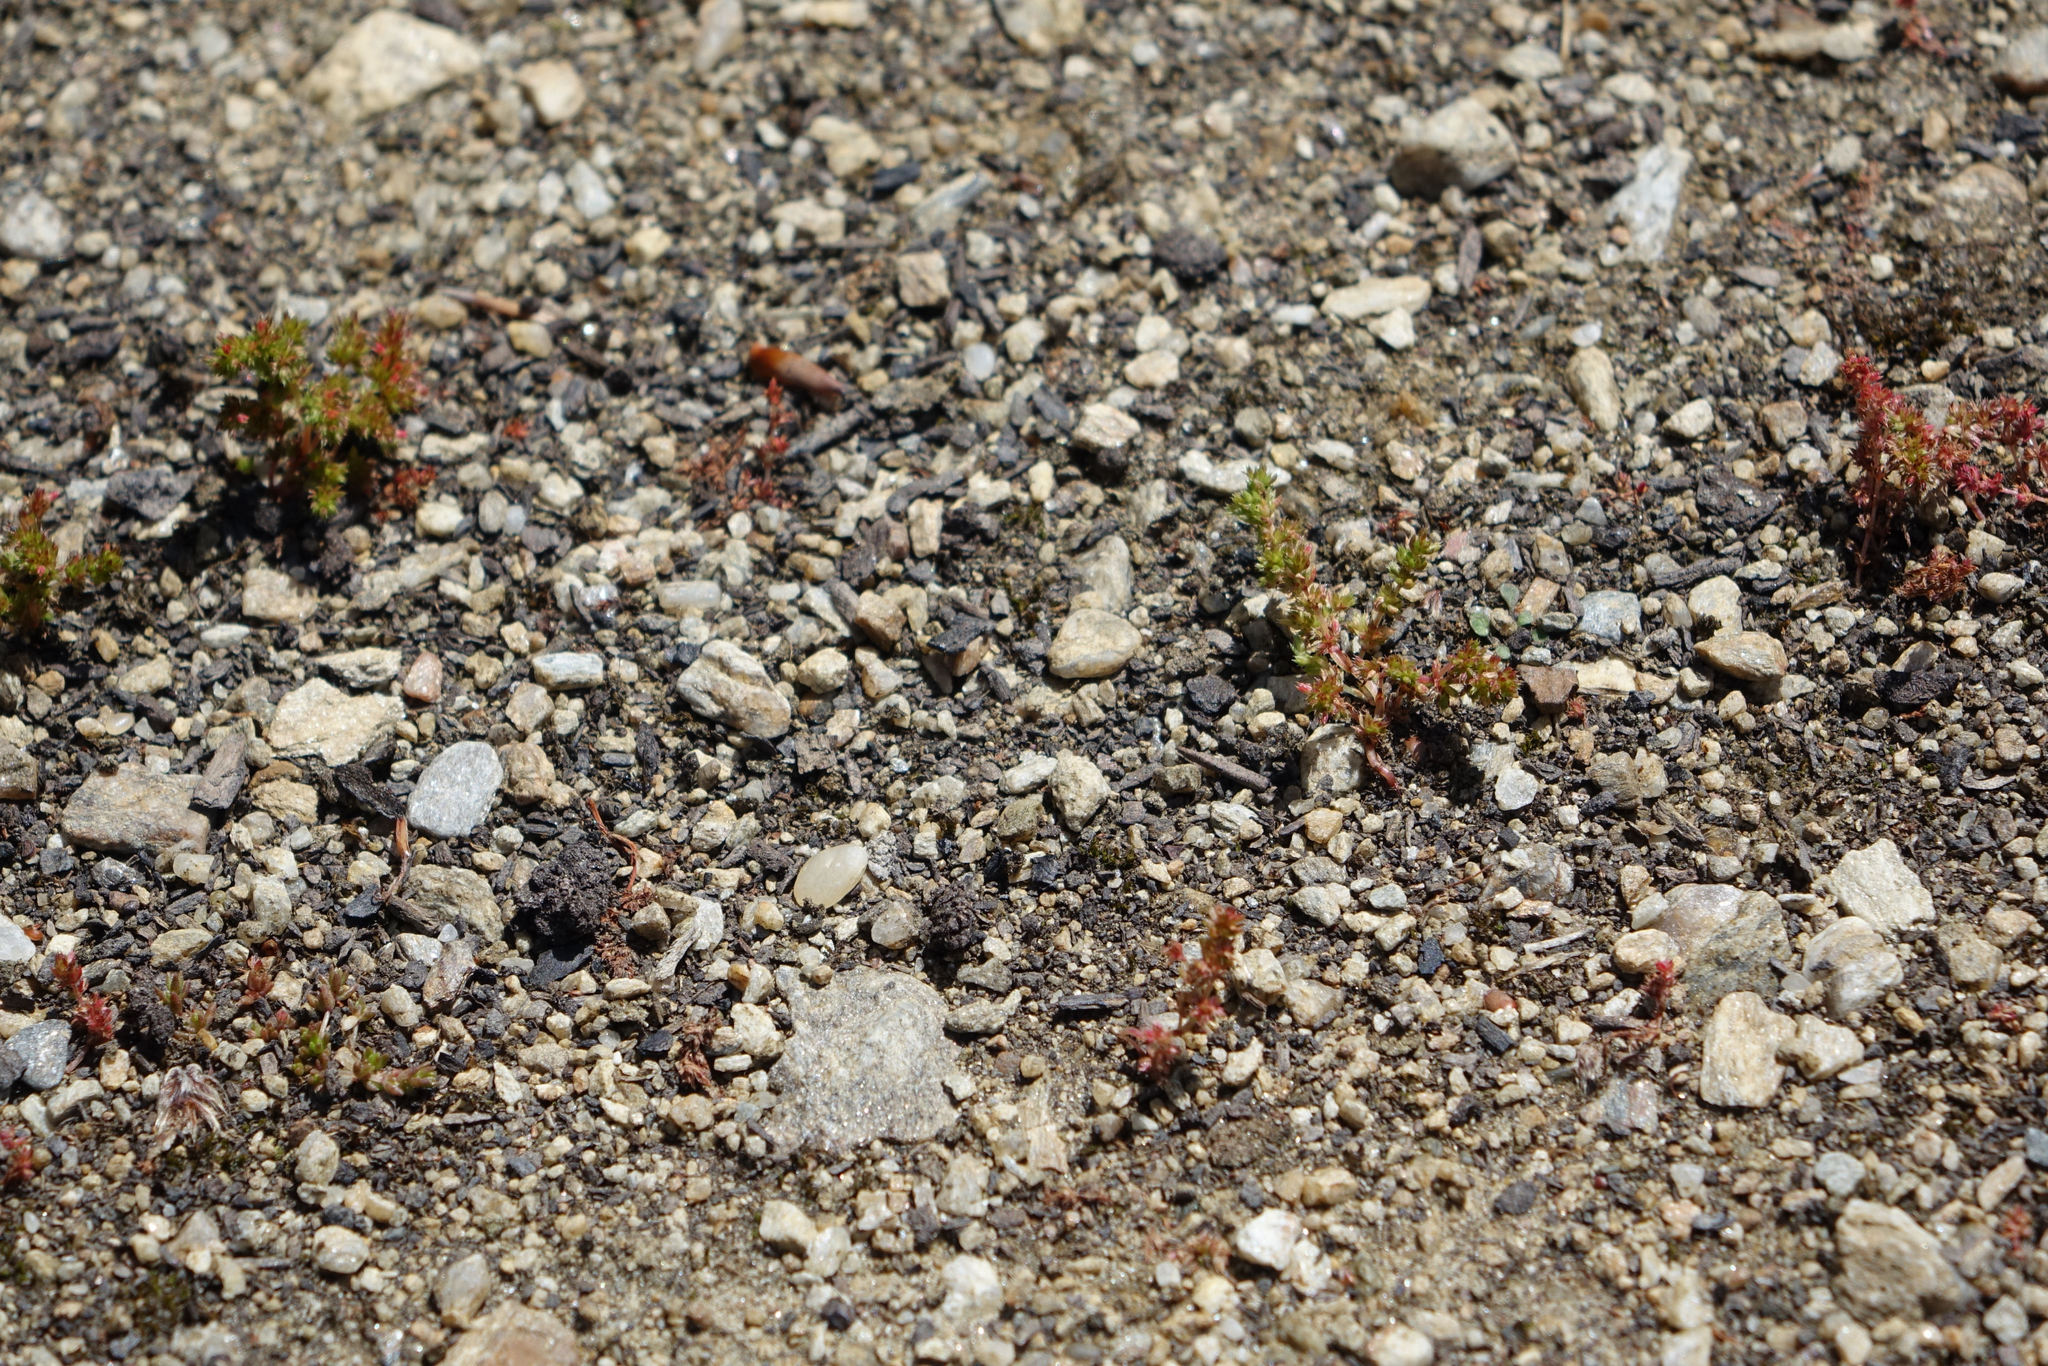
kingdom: Plantae
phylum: Tracheophyta
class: Magnoliopsida
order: Saxifragales
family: Crassulaceae
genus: Crassula
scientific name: Crassula alata
